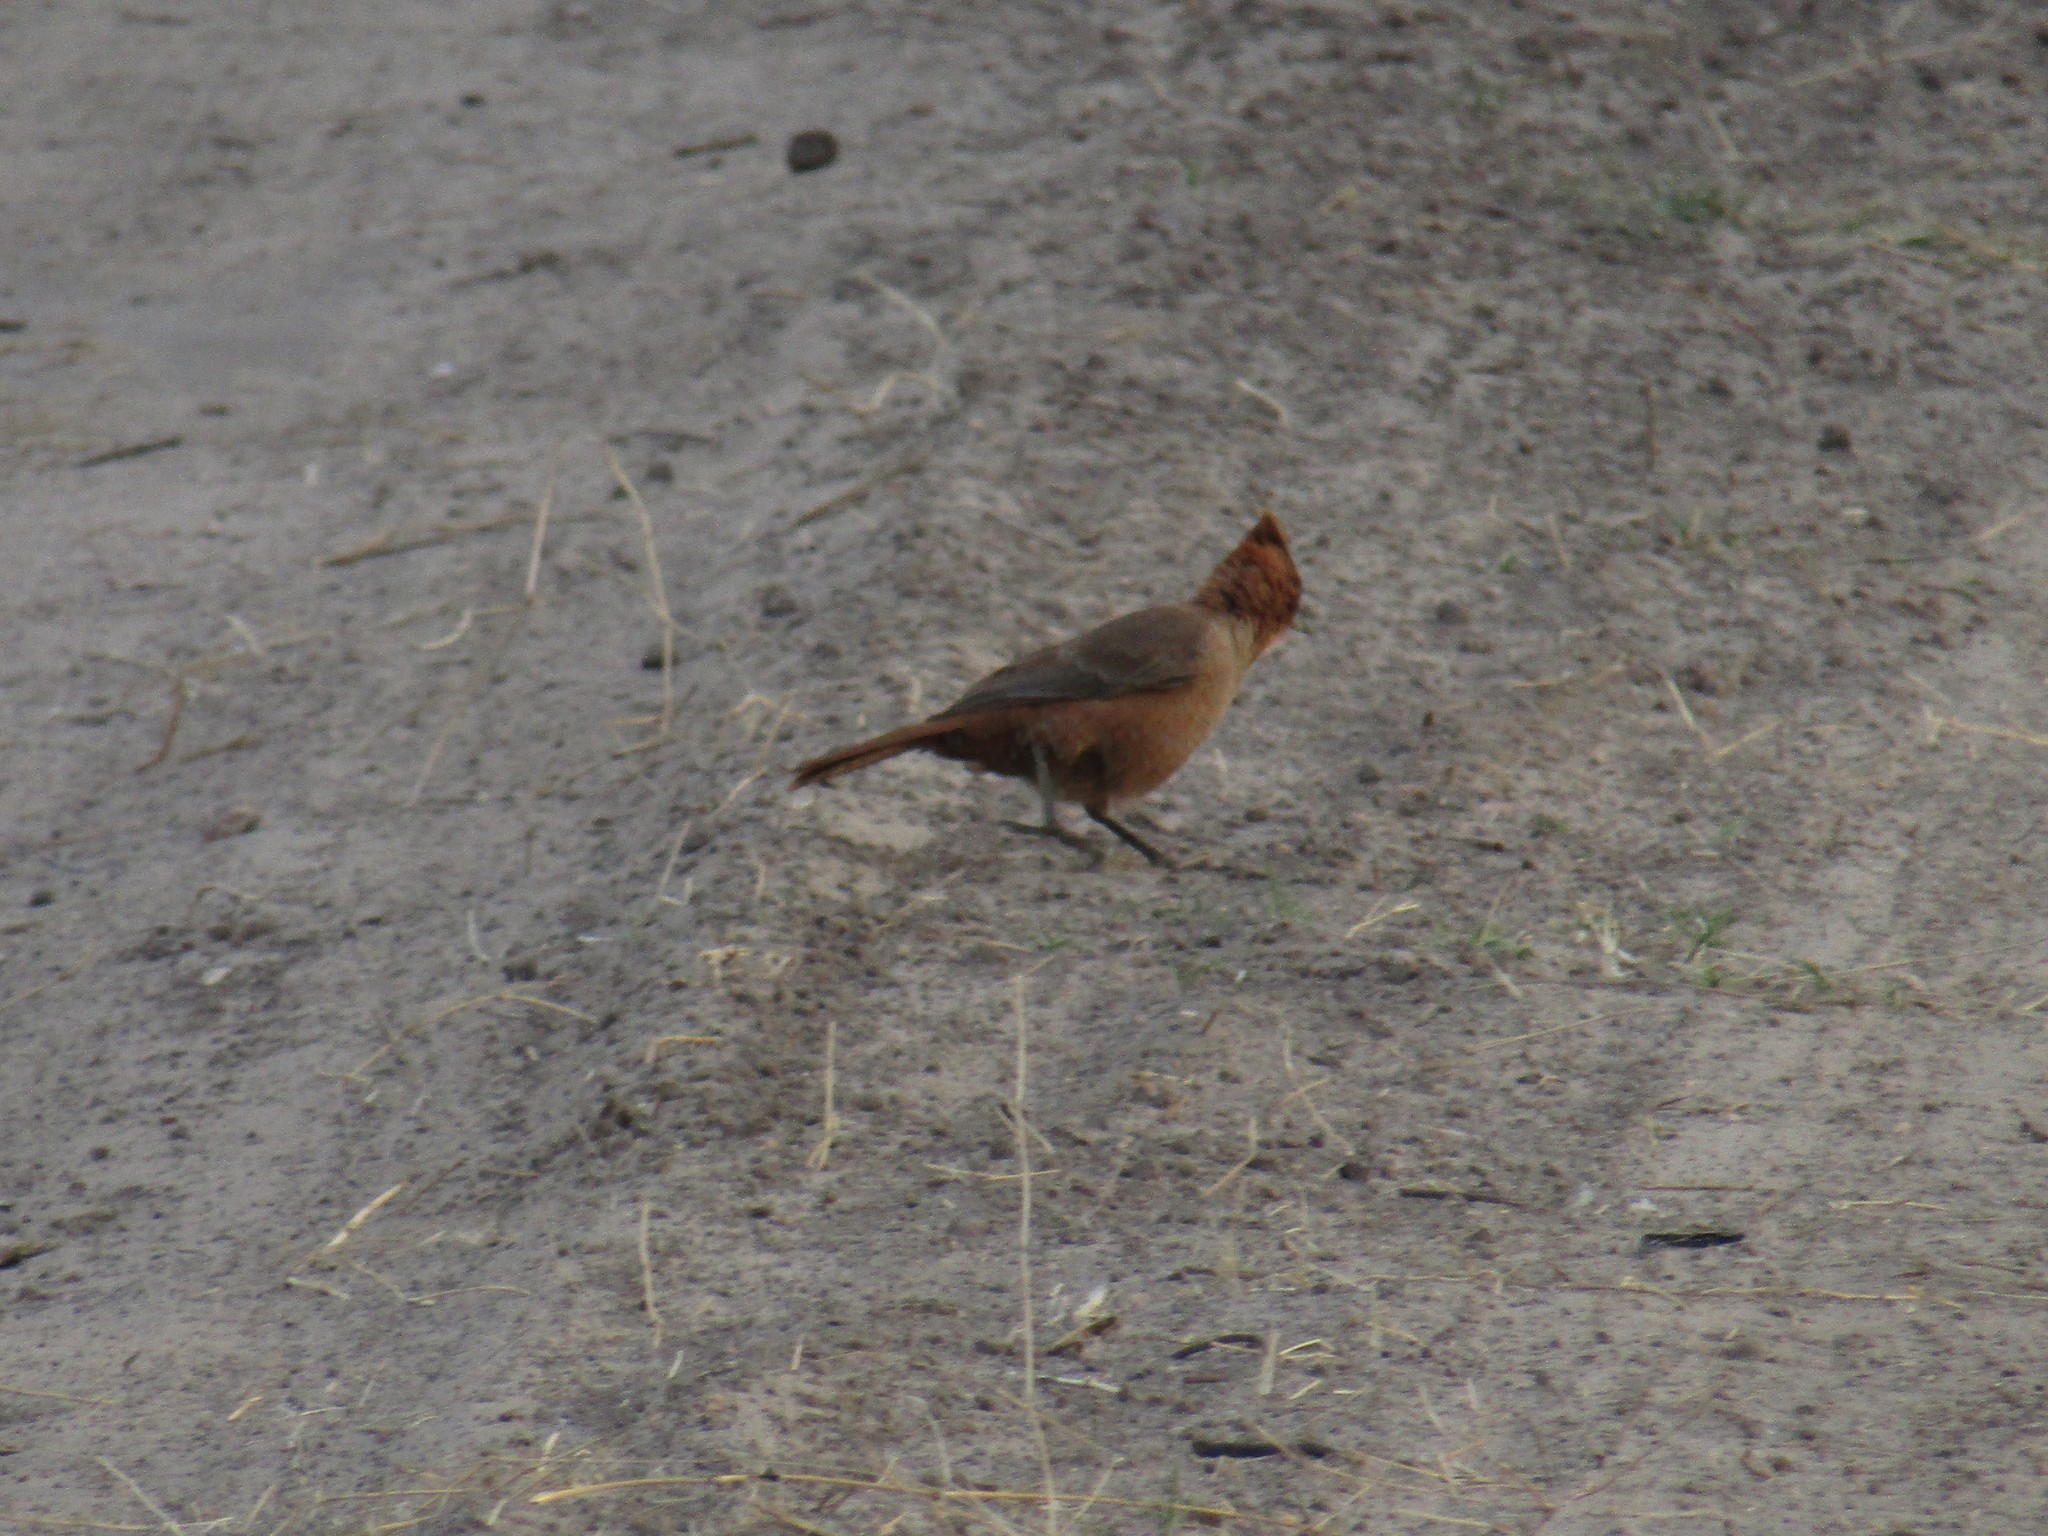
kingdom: Animalia
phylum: Chordata
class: Aves
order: Passeriformes
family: Furnariidae
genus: Pseudoseisura
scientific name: Pseudoseisura lophotes
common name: Brown cacholote
